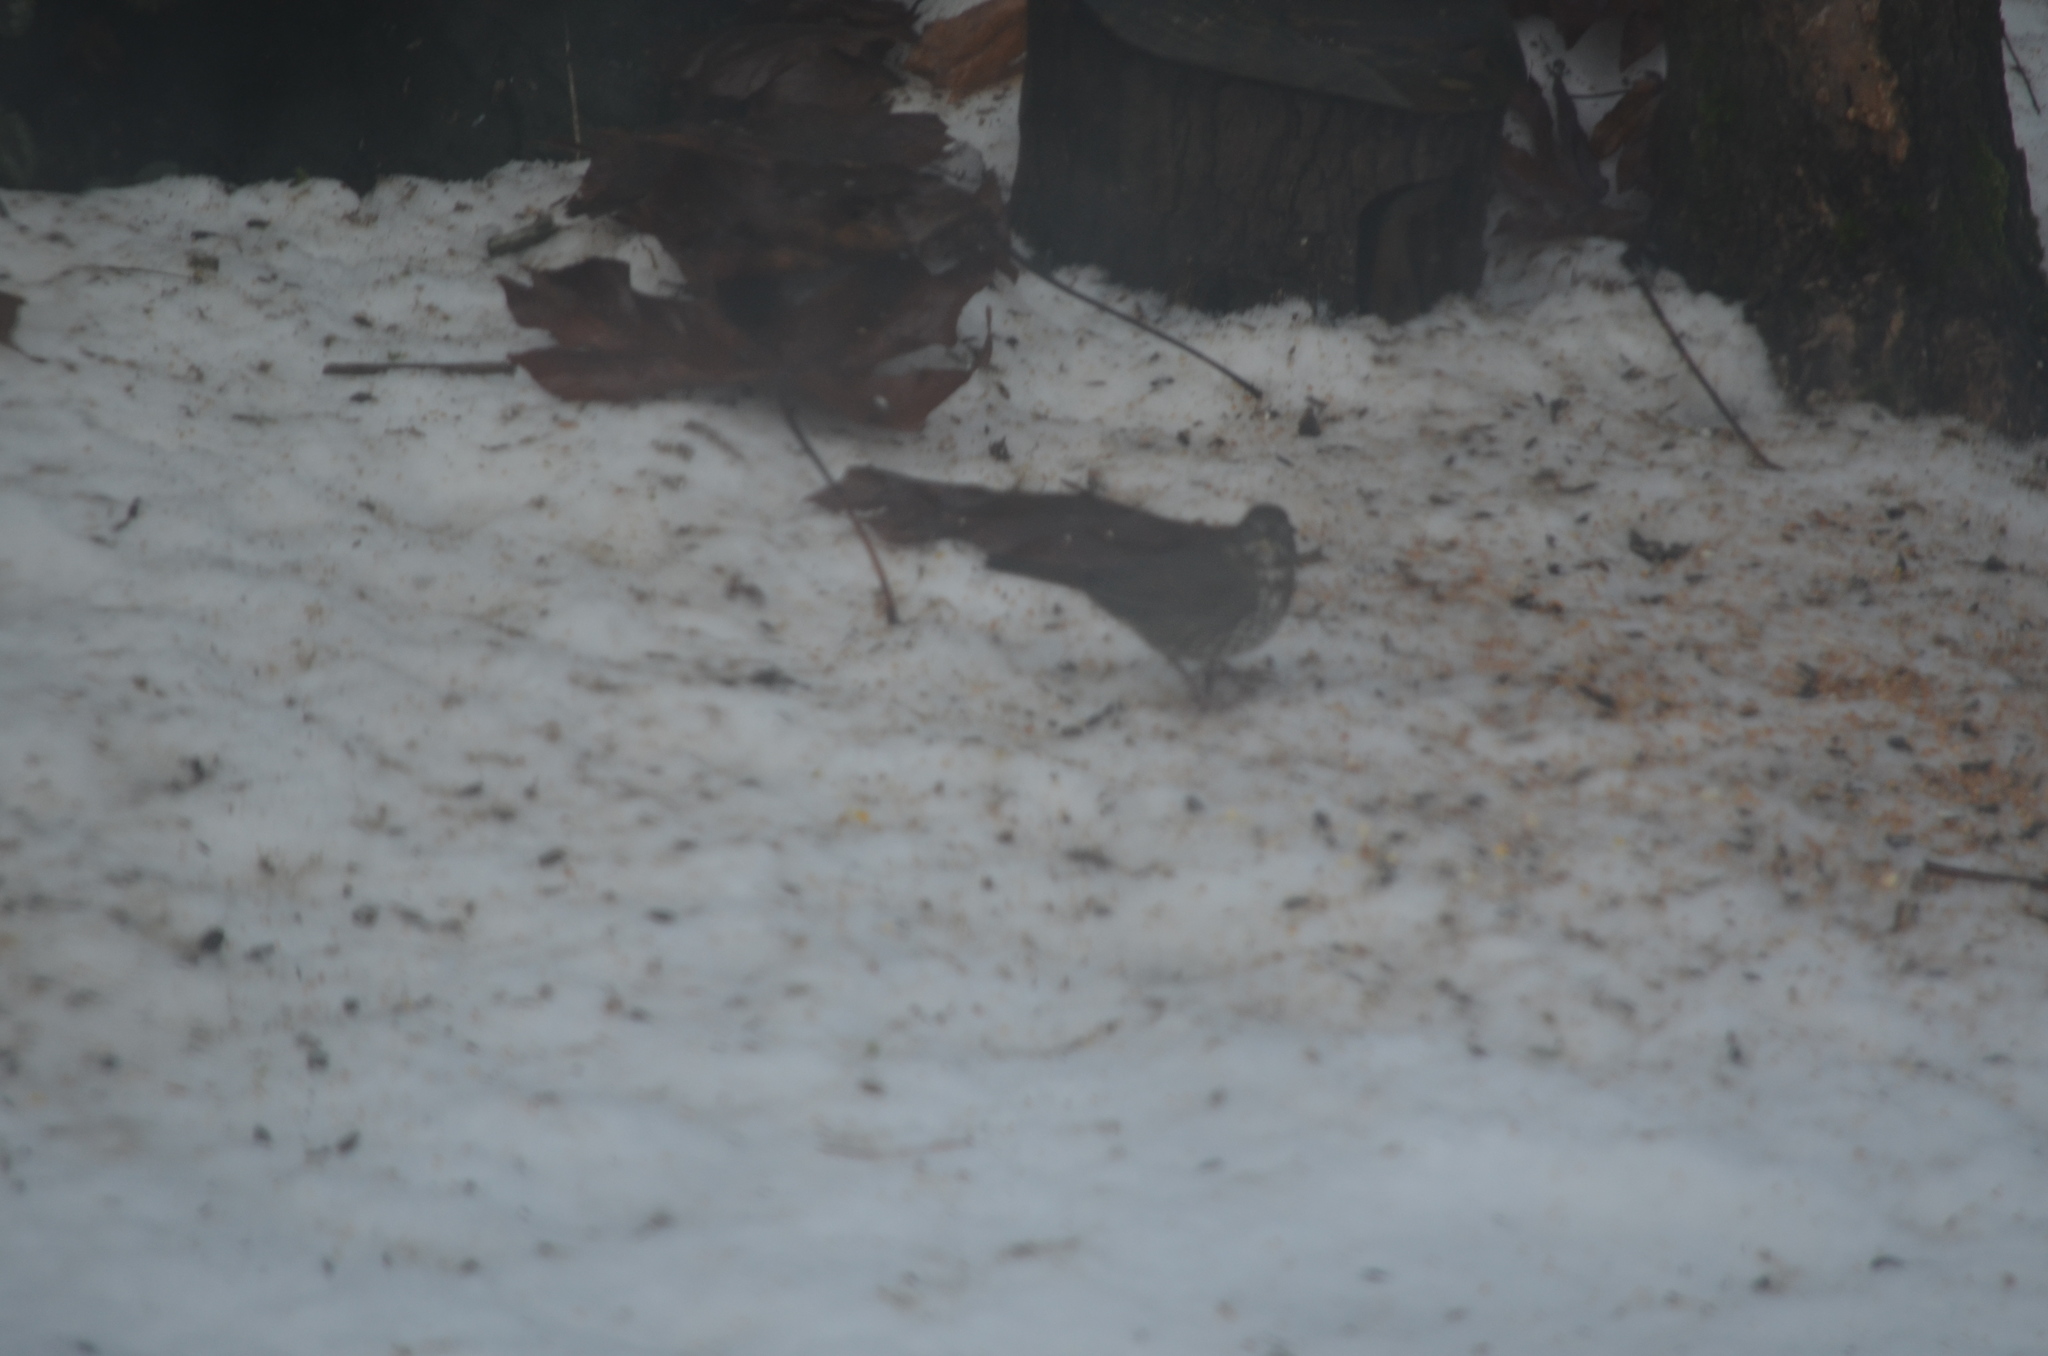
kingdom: Animalia
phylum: Chordata
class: Aves
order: Passeriformes
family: Passerellidae
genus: Passerella
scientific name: Passerella iliaca
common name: Fox sparrow
